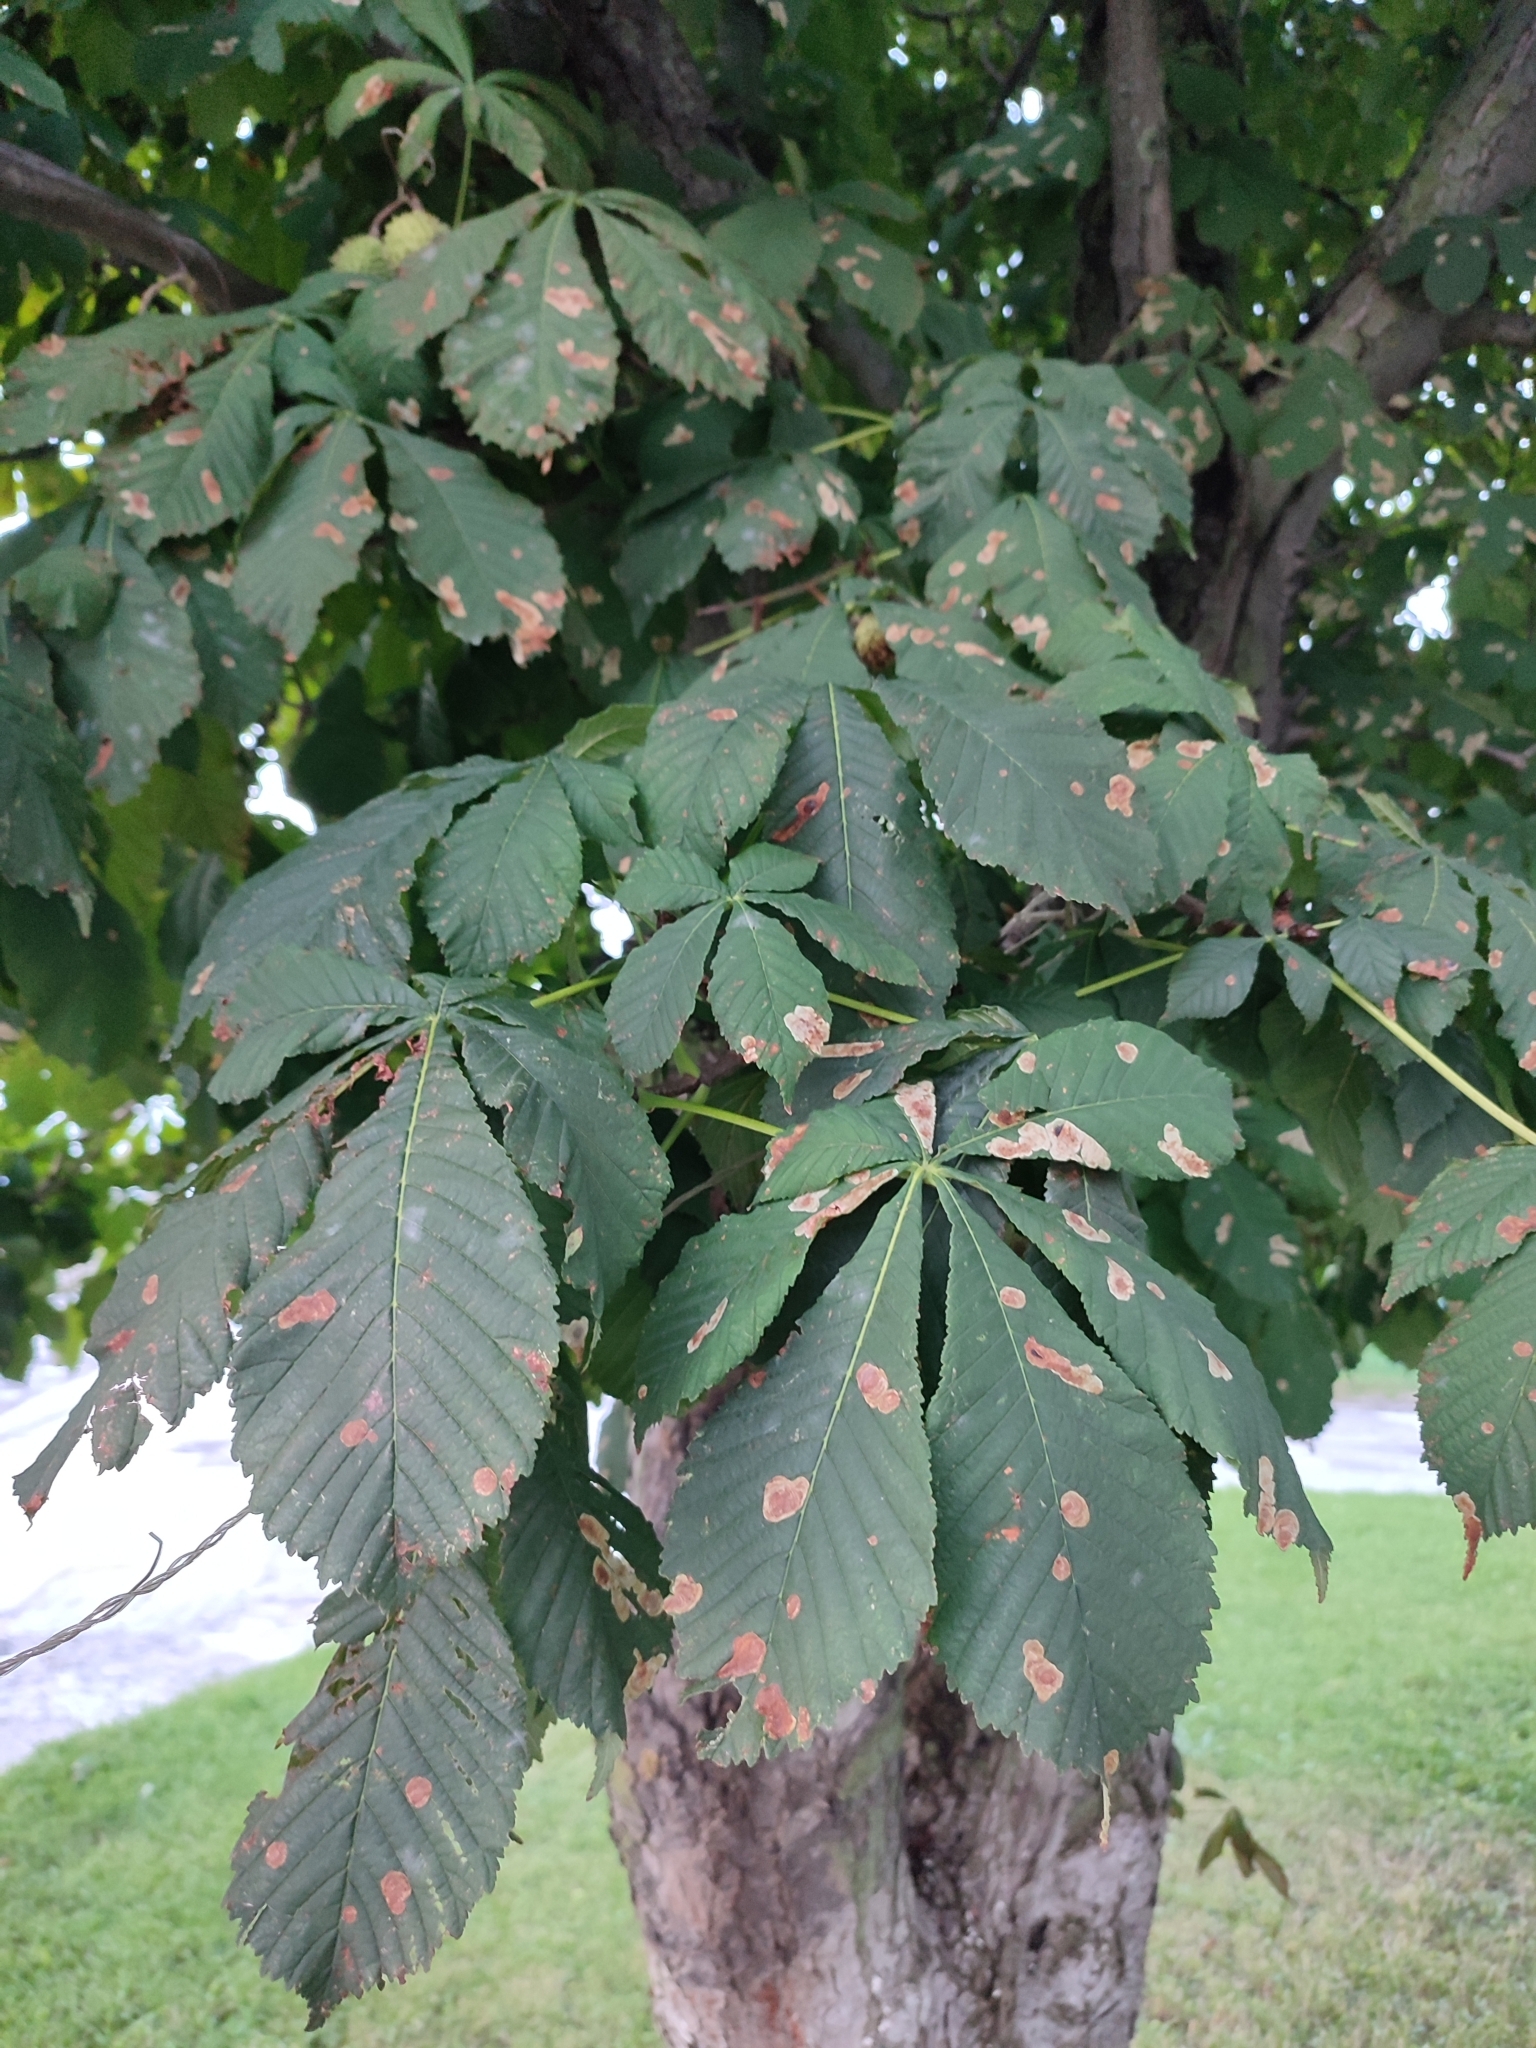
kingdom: Animalia
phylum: Arthropoda
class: Insecta
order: Lepidoptera
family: Gracillariidae
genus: Cameraria
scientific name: Cameraria ohridella
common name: Horse-chestnut leaf-miner
